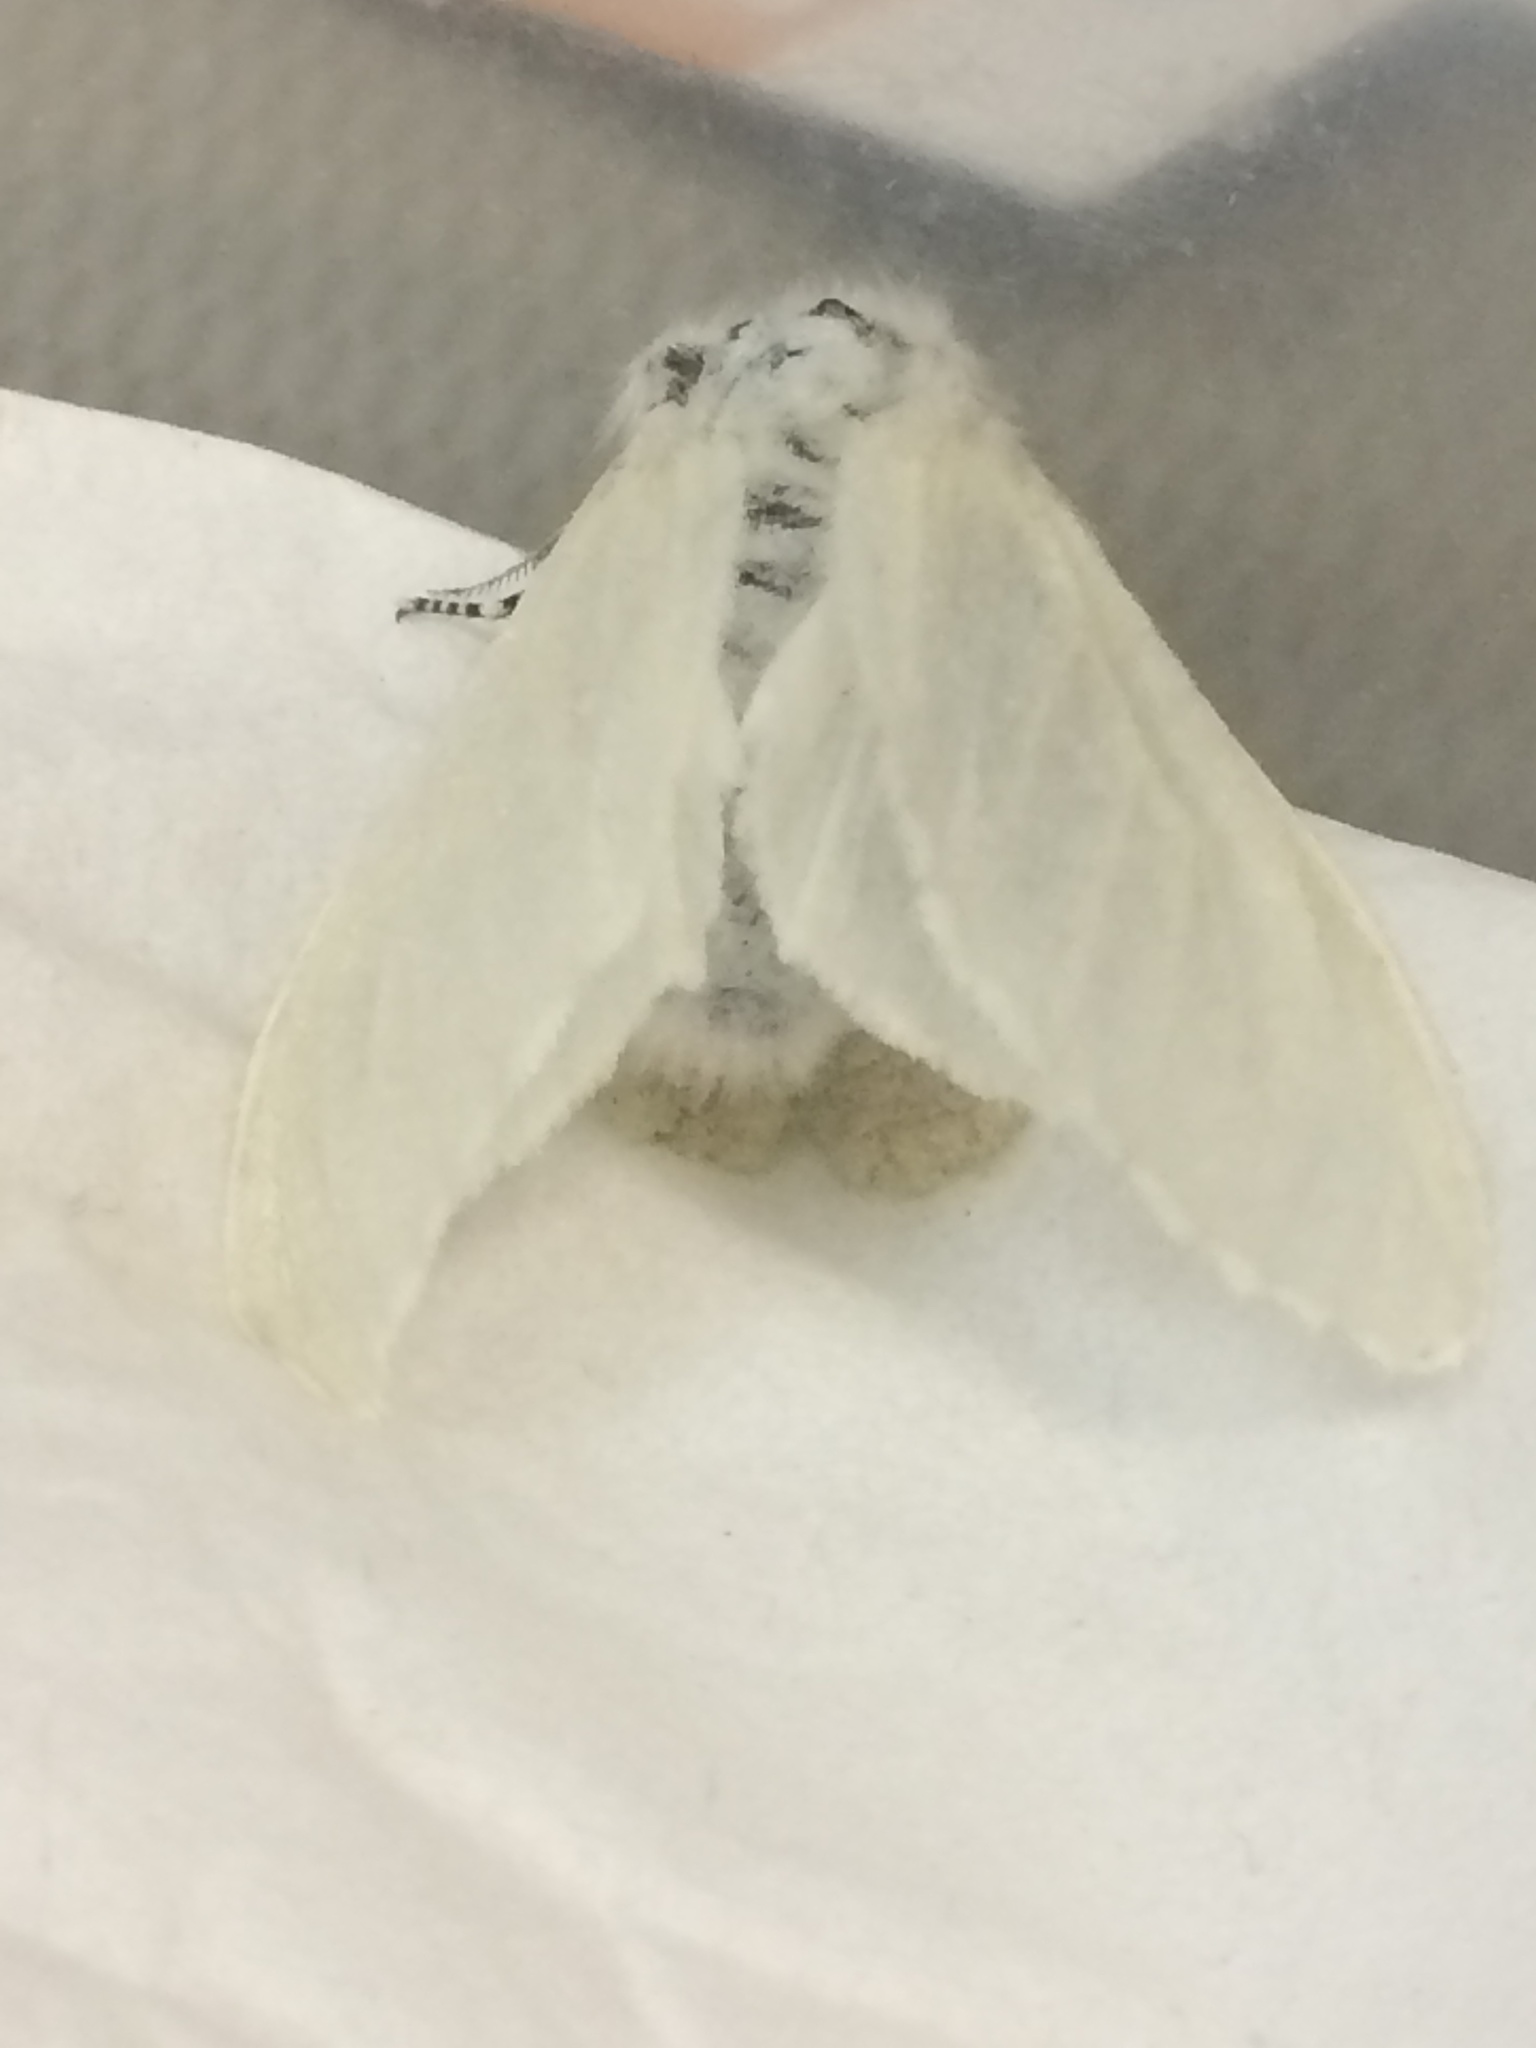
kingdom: Animalia
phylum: Arthropoda
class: Insecta
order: Lepidoptera
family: Erebidae
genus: Leucoma
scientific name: Leucoma salicis
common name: White satin moth
